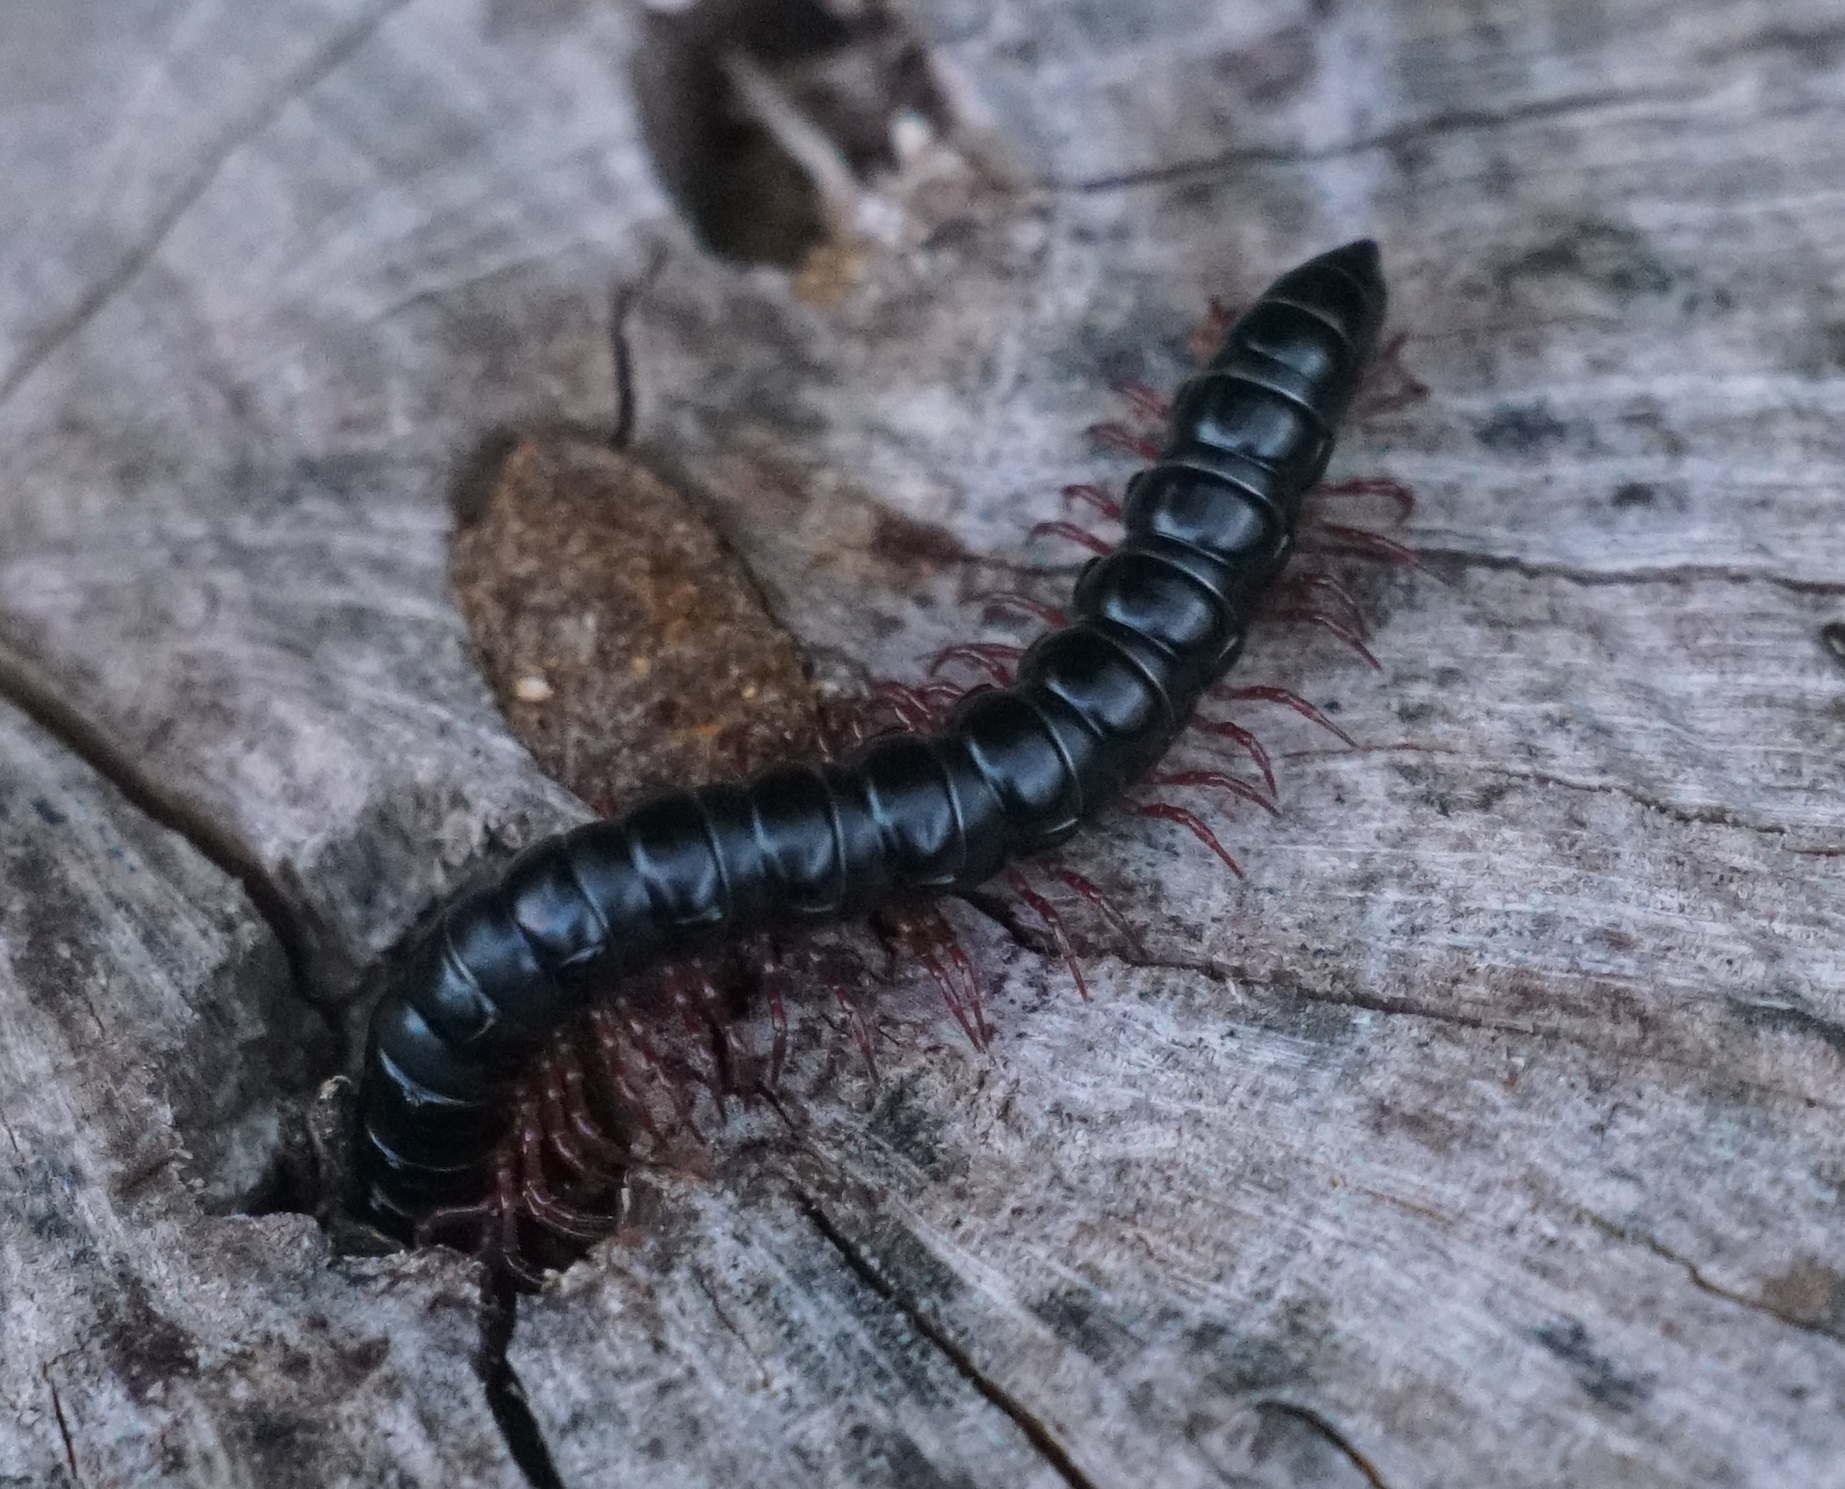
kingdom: Animalia
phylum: Arthropoda
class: Diplopoda
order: Polydesmida
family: Paradoxosomatidae
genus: Heterocladosoma
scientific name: Heterocladosoma
